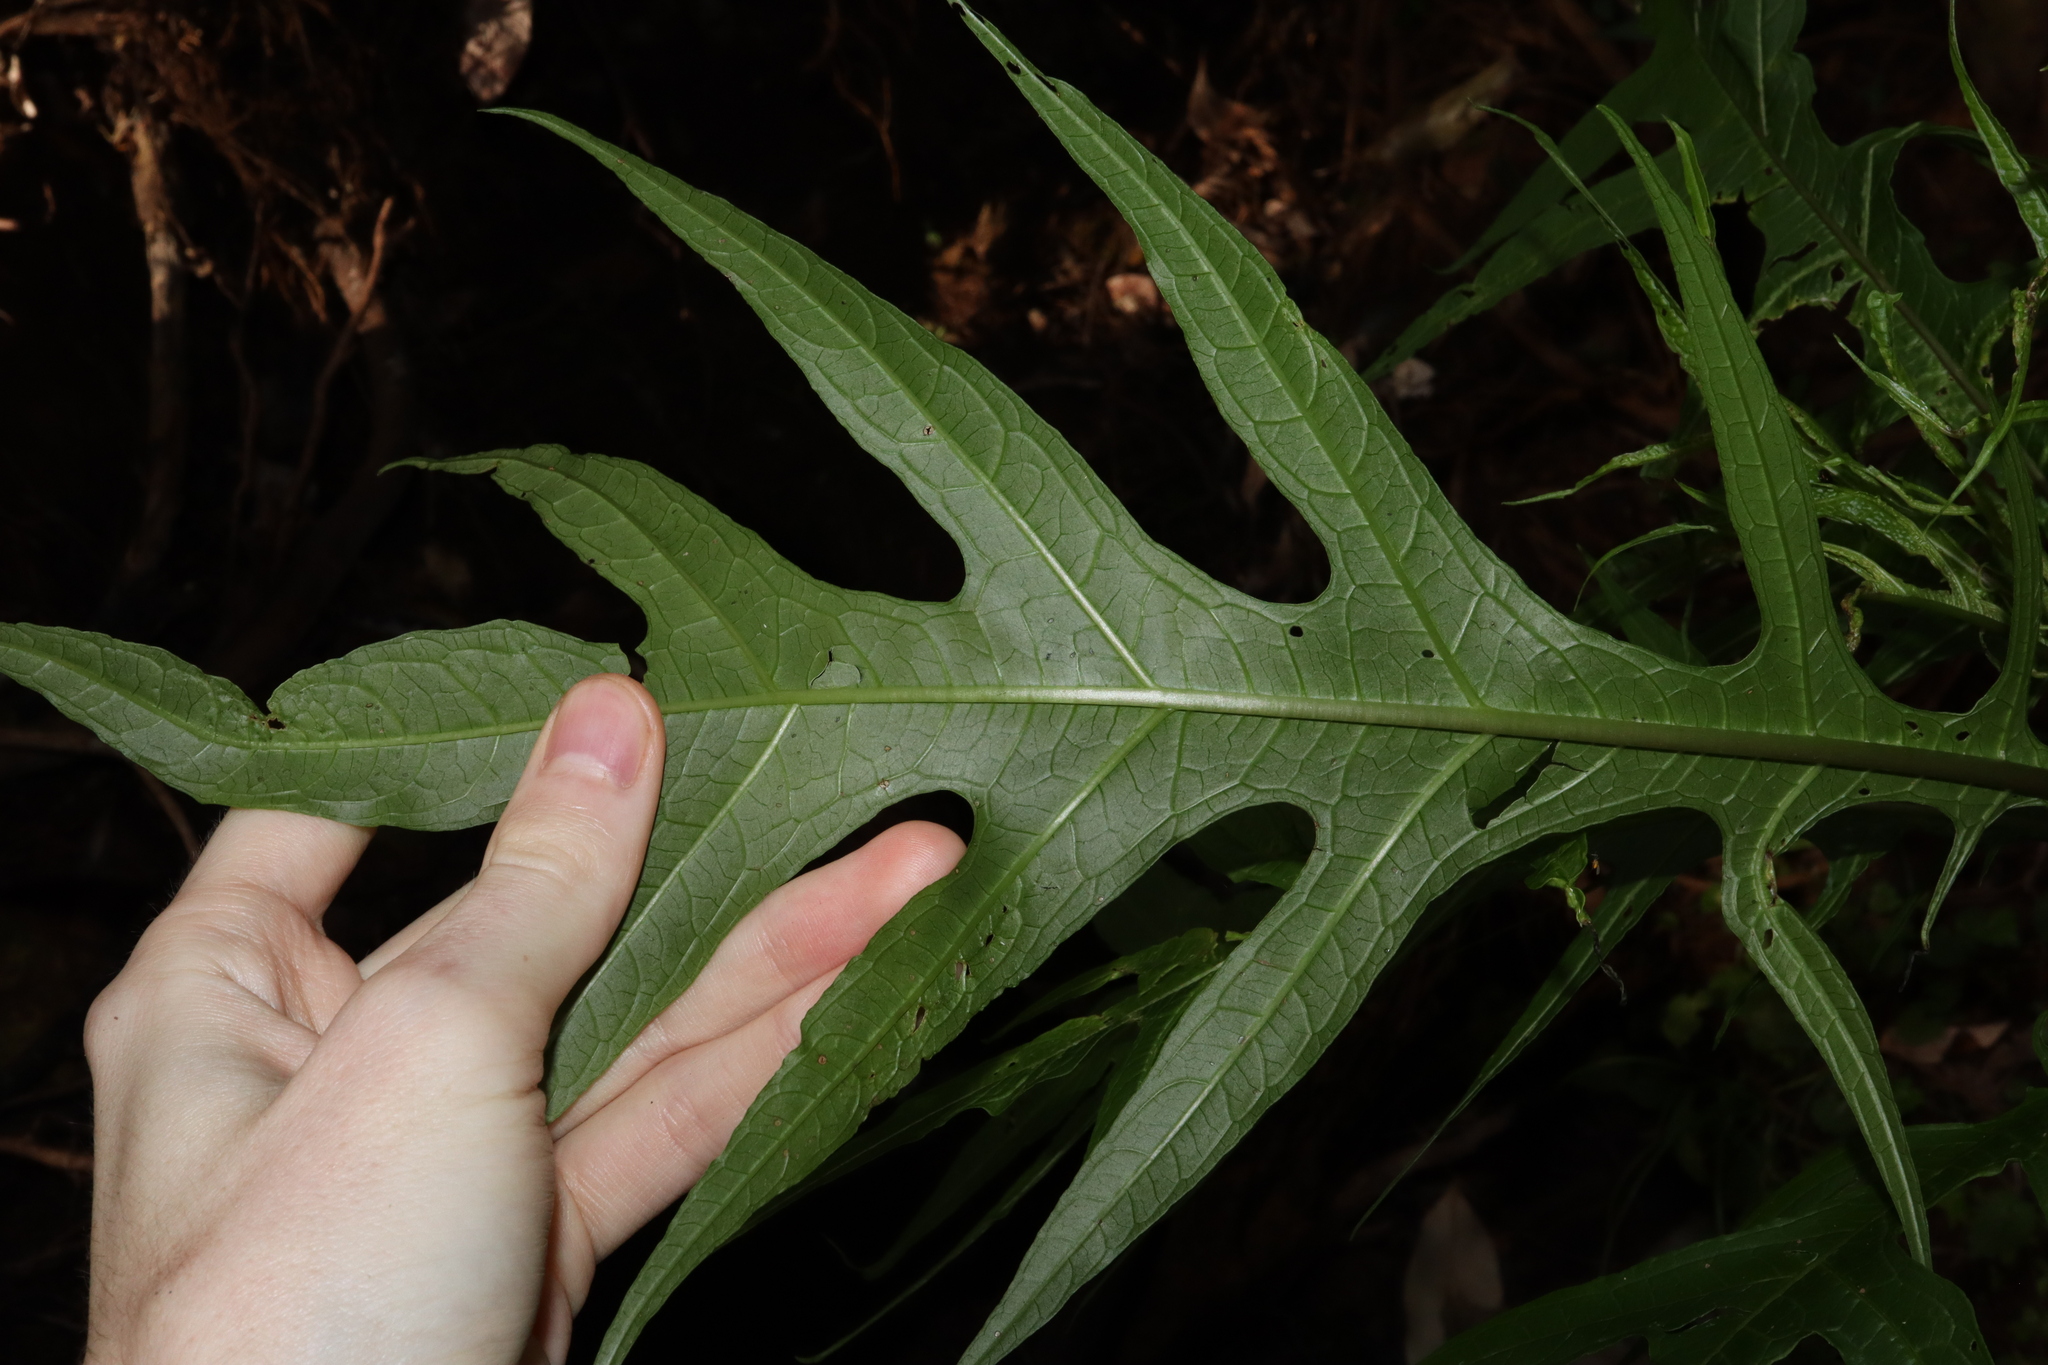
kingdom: Plantae
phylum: Tracheophyta
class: Magnoliopsida
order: Solanales
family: Solanaceae
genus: Solanum
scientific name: Solanum aviculare
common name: New zealand nightshade
